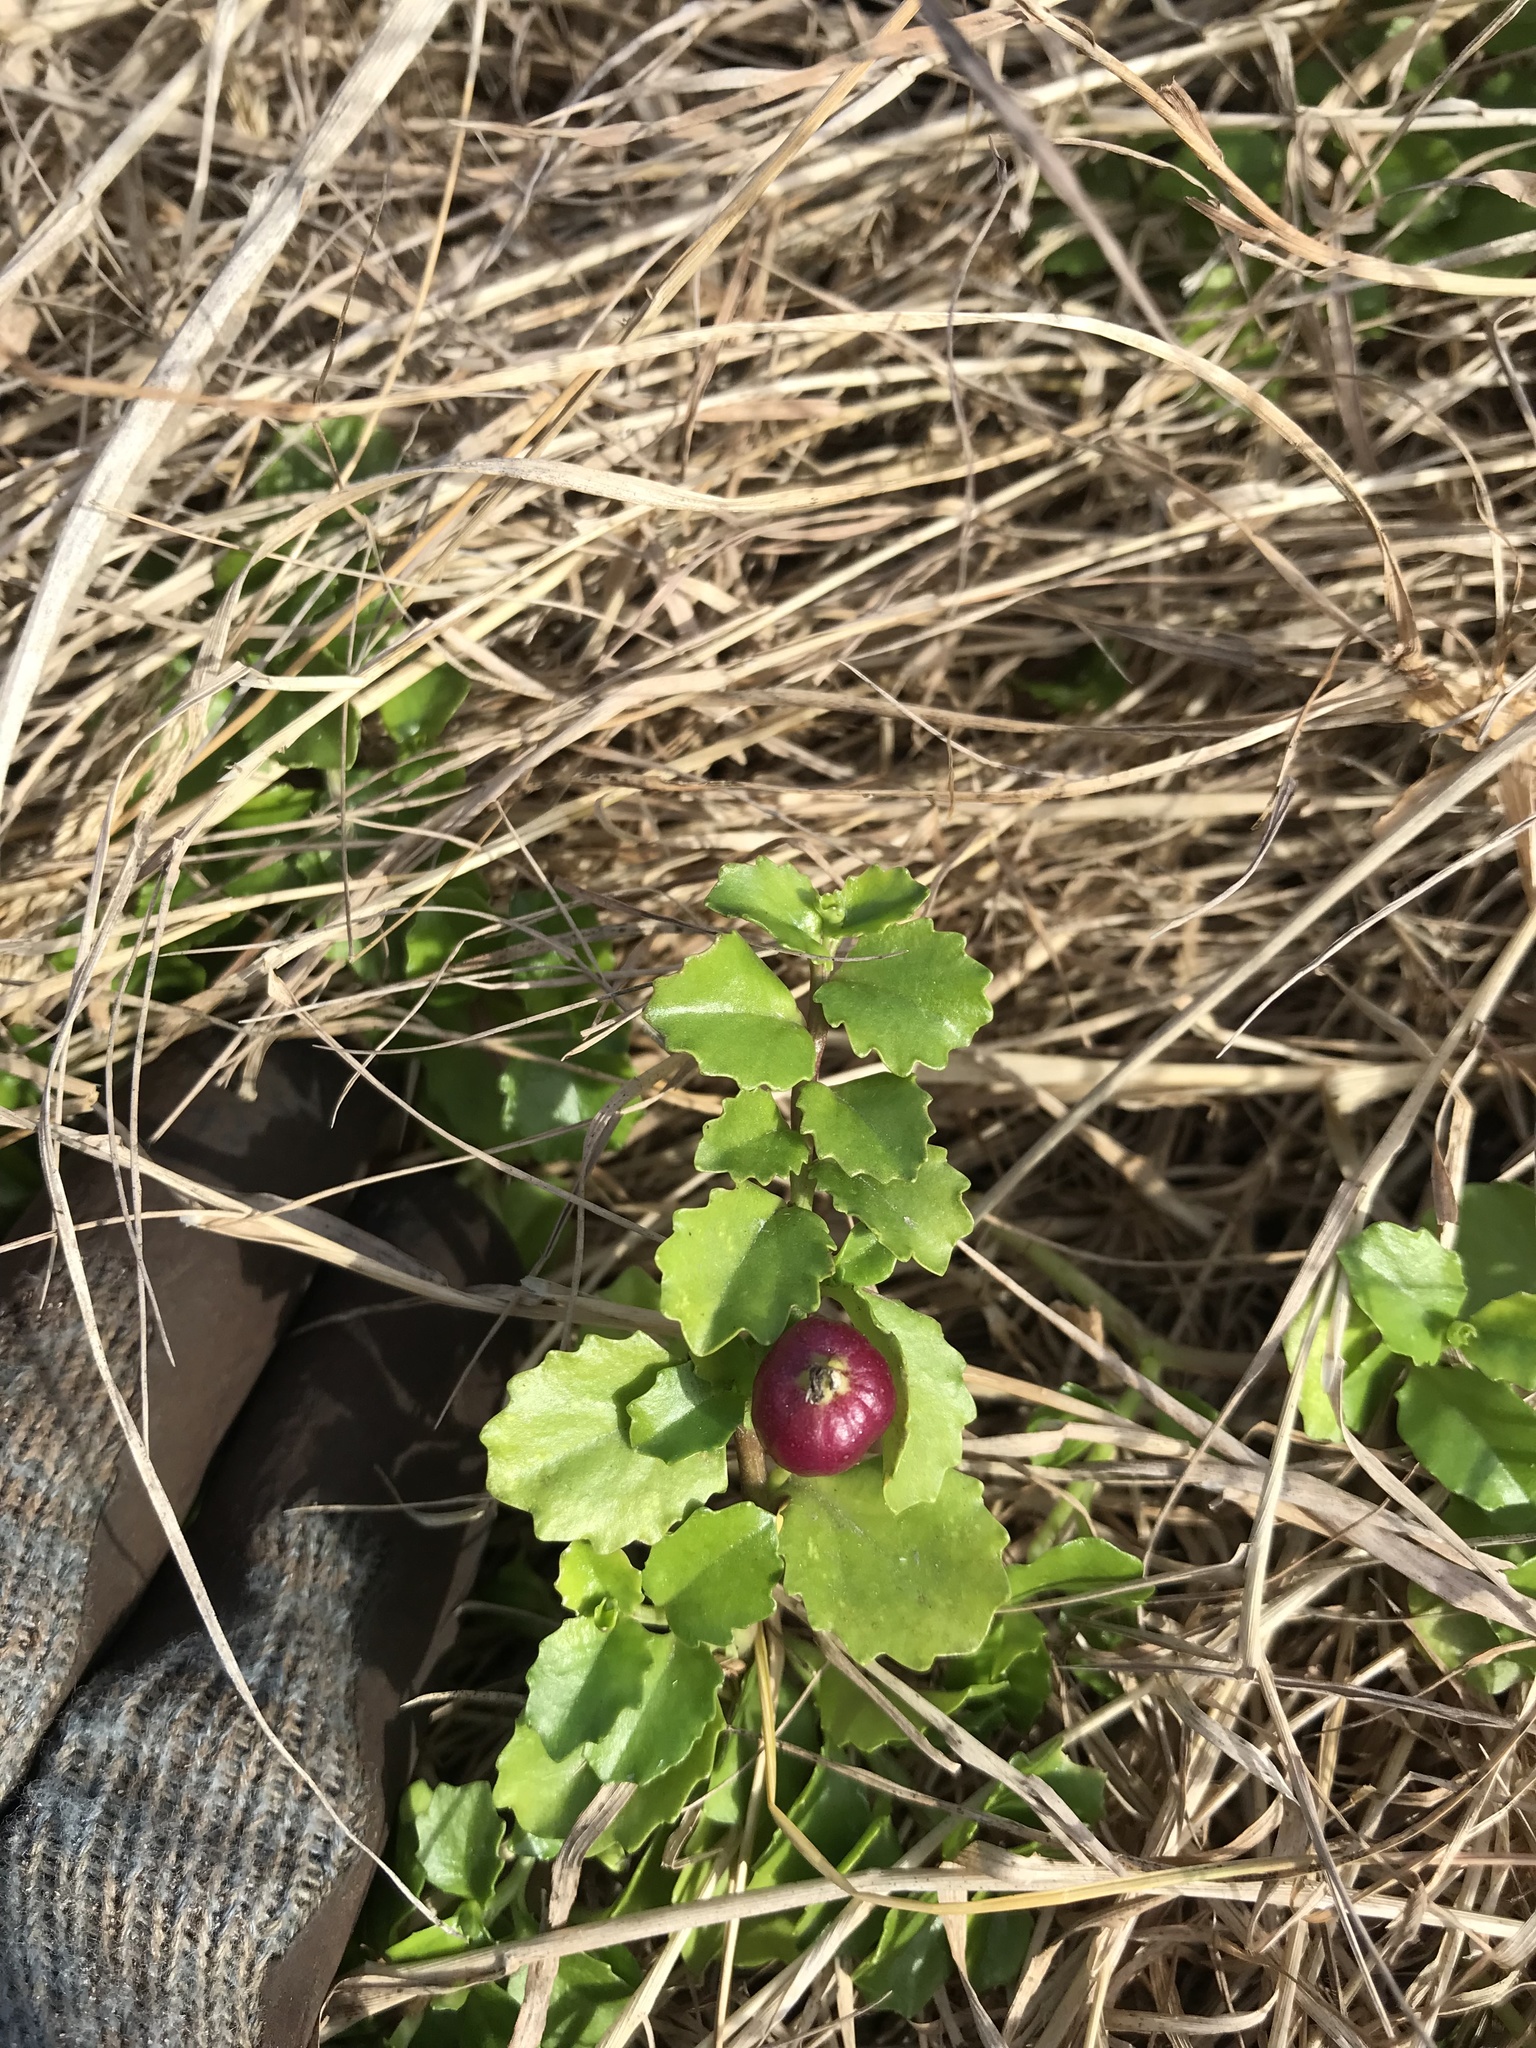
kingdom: Plantae
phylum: Tracheophyta
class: Magnoliopsida
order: Asterales
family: Campanulaceae
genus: Lobelia
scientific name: Lobelia arenaria
